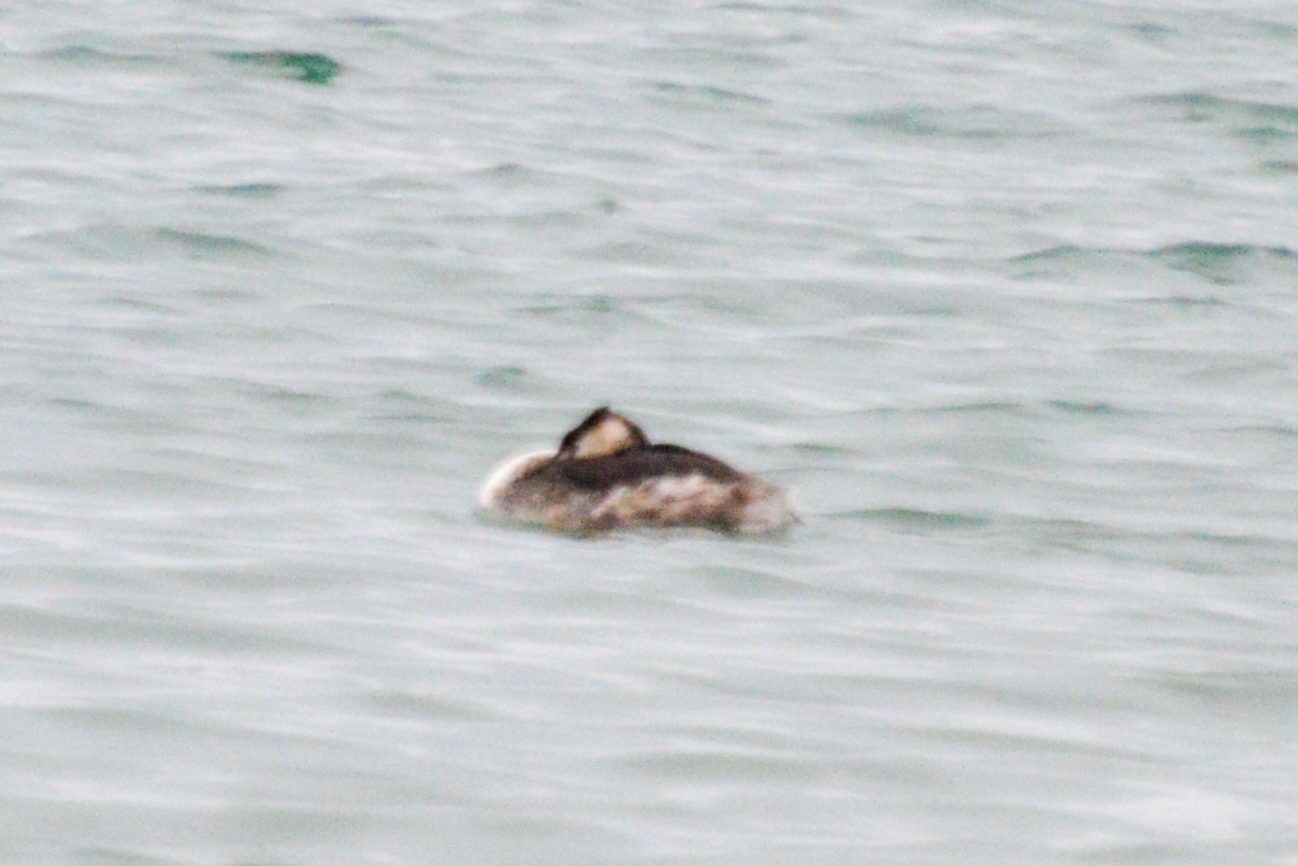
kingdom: Animalia
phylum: Chordata
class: Aves
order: Podicipediformes
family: Podicipedidae
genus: Podiceps
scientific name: Podiceps cristatus
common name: Great crested grebe
